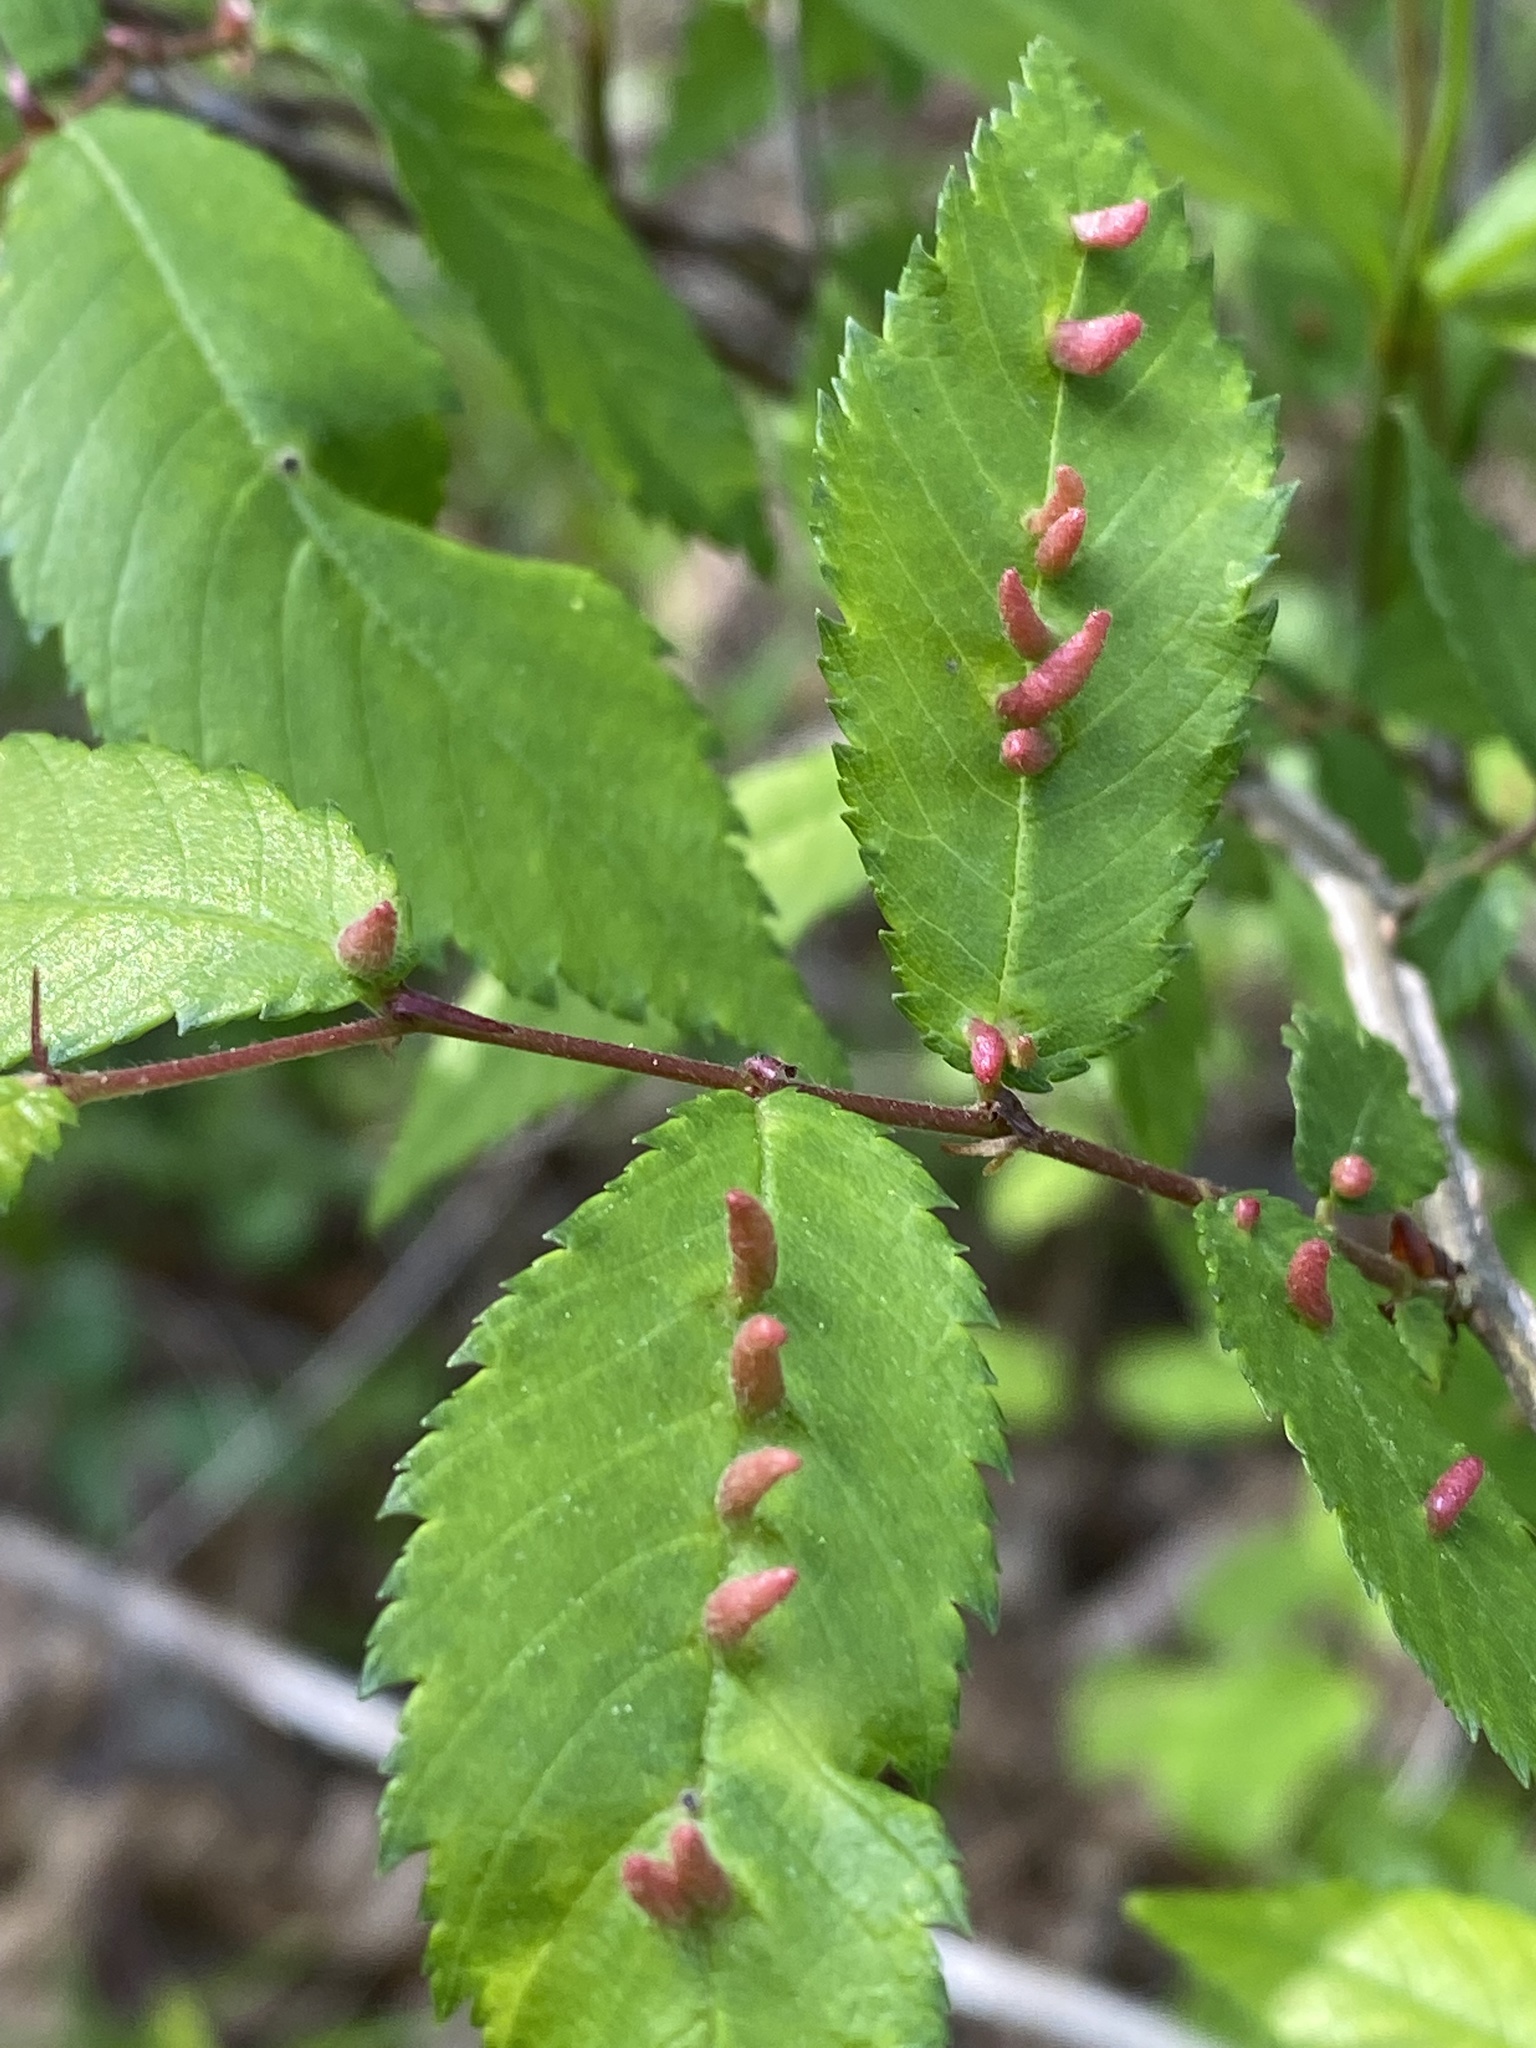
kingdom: Animalia
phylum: Arthropoda
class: Arachnida
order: Trombidiformes
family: Eriophyidae
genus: Aceria
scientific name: Aceria
